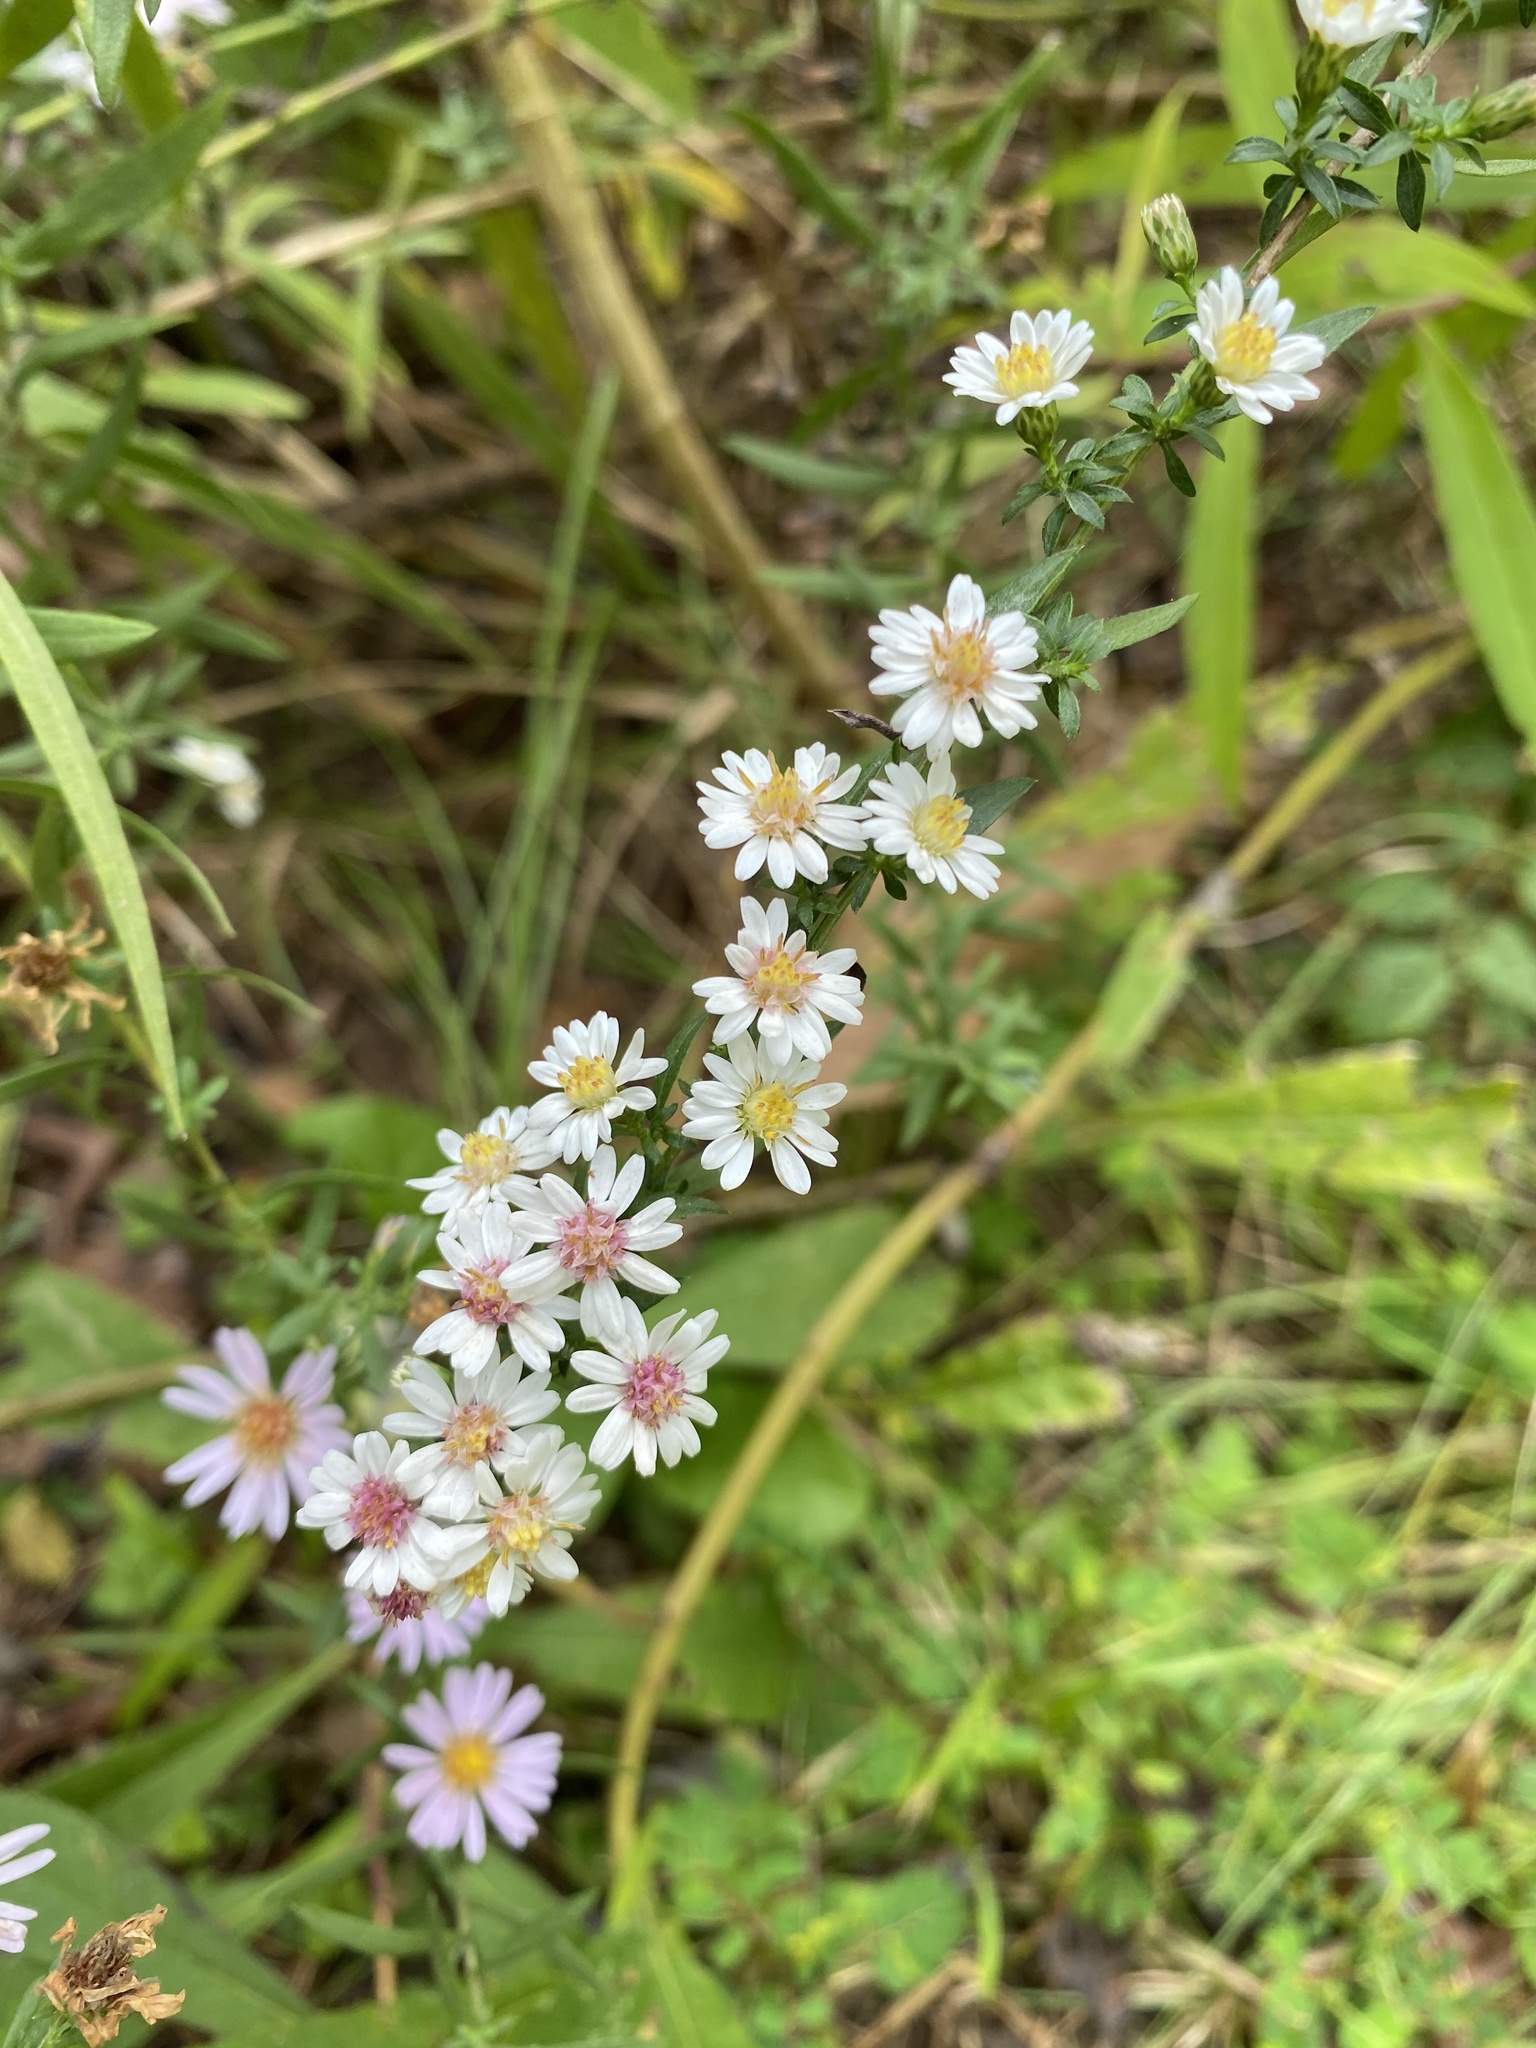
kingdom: Plantae
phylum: Tracheophyta
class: Magnoliopsida
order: Asterales
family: Asteraceae
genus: Symphyotrichum
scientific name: Symphyotrichum lateriflorum
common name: Calico aster
